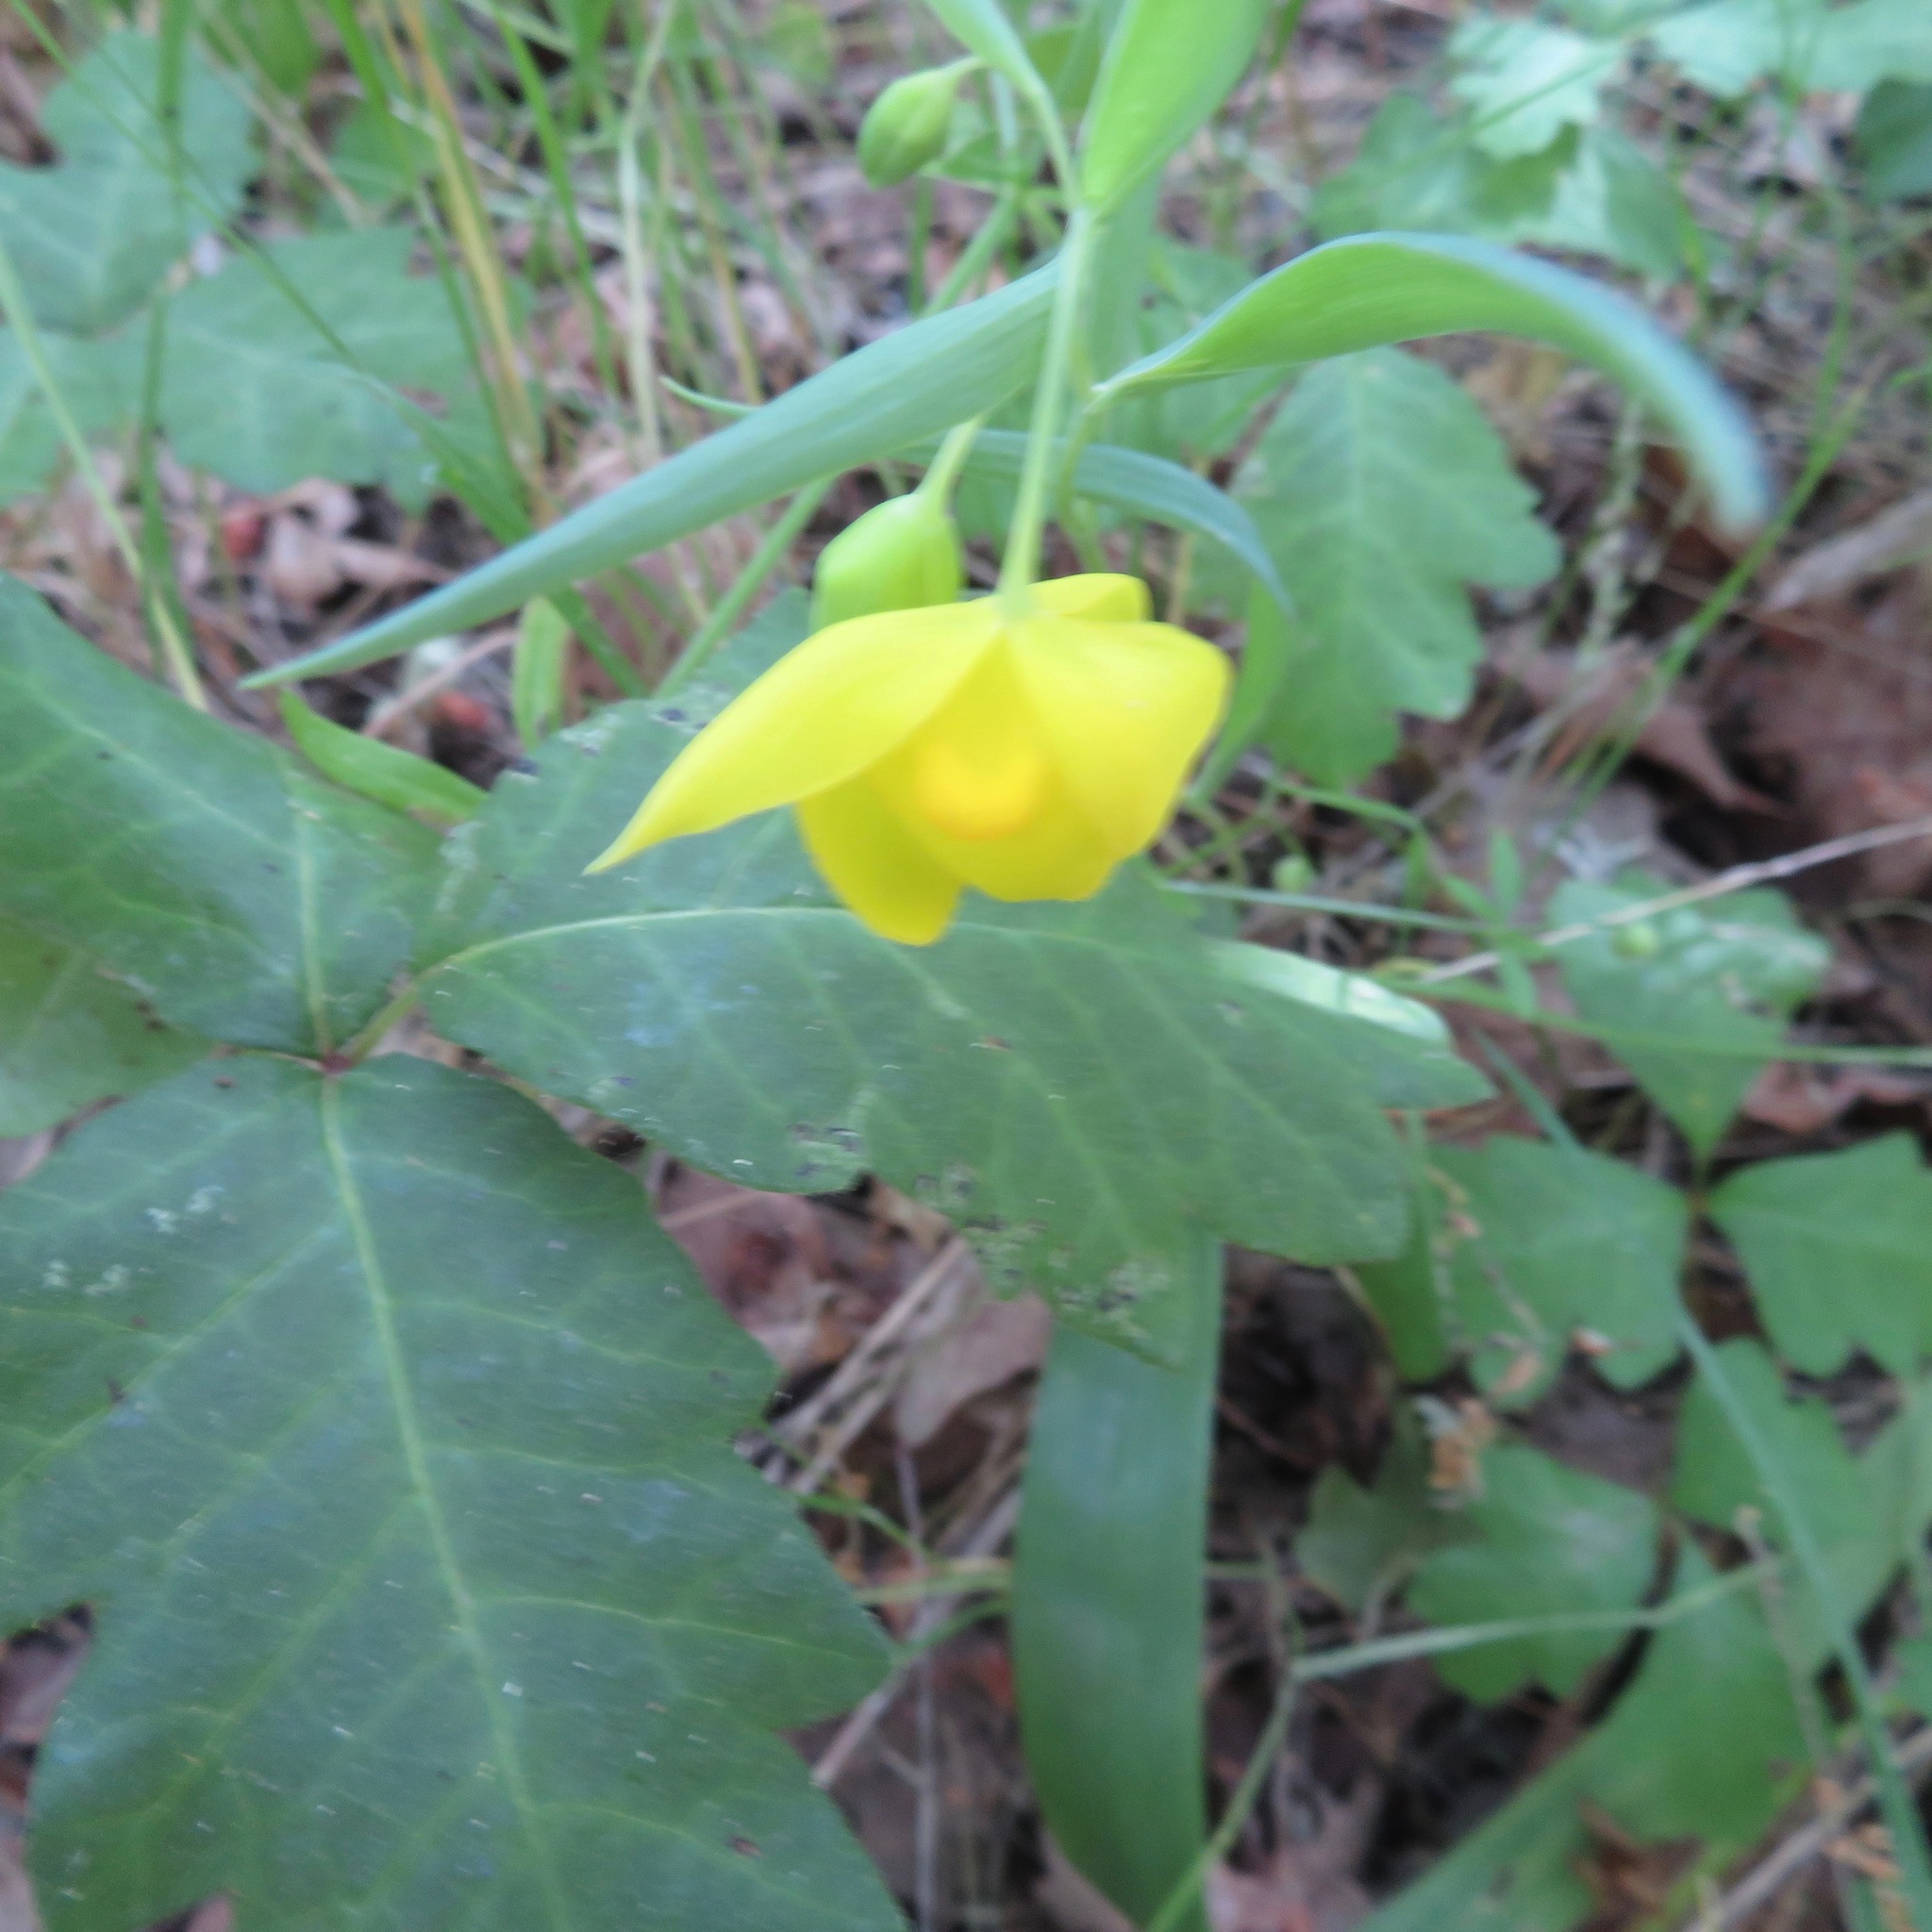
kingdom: Plantae
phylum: Tracheophyta
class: Liliopsida
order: Liliales
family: Liliaceae
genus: Calochortus
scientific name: Calochortus amabilis
